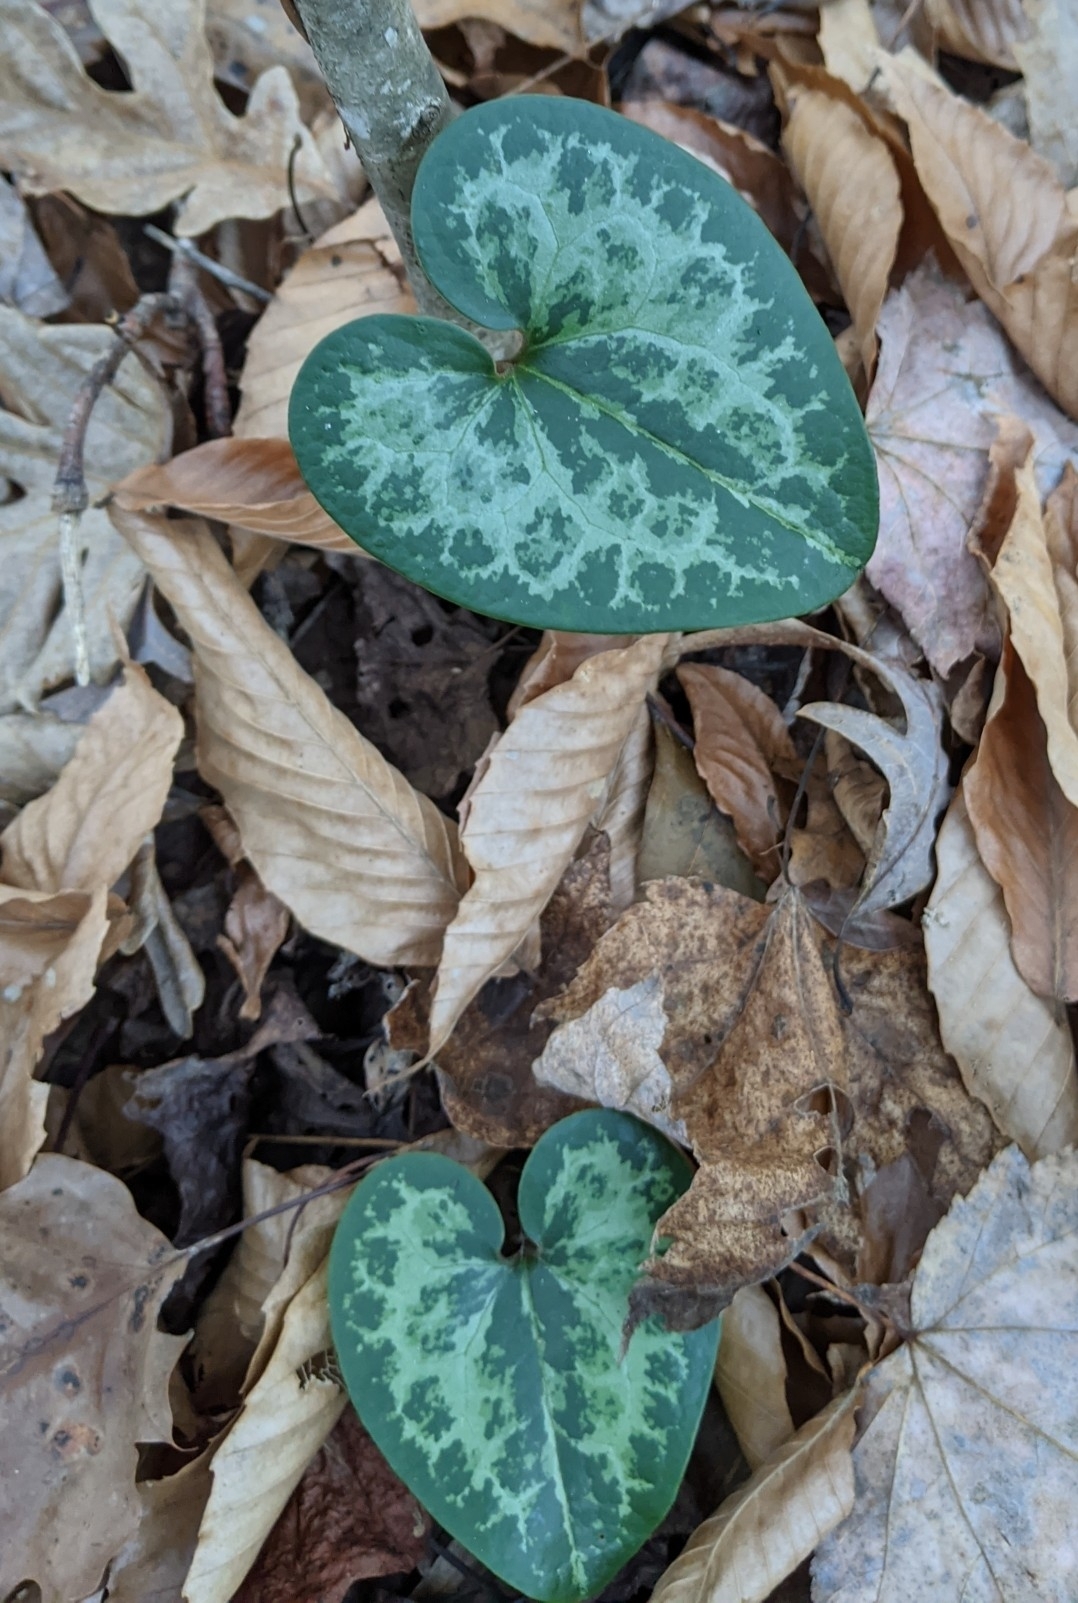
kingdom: Plantae
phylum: Tracheophyta
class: Magnoliopsida
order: Piperales
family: Aristolochiaceae
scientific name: Aristolochiaceae
